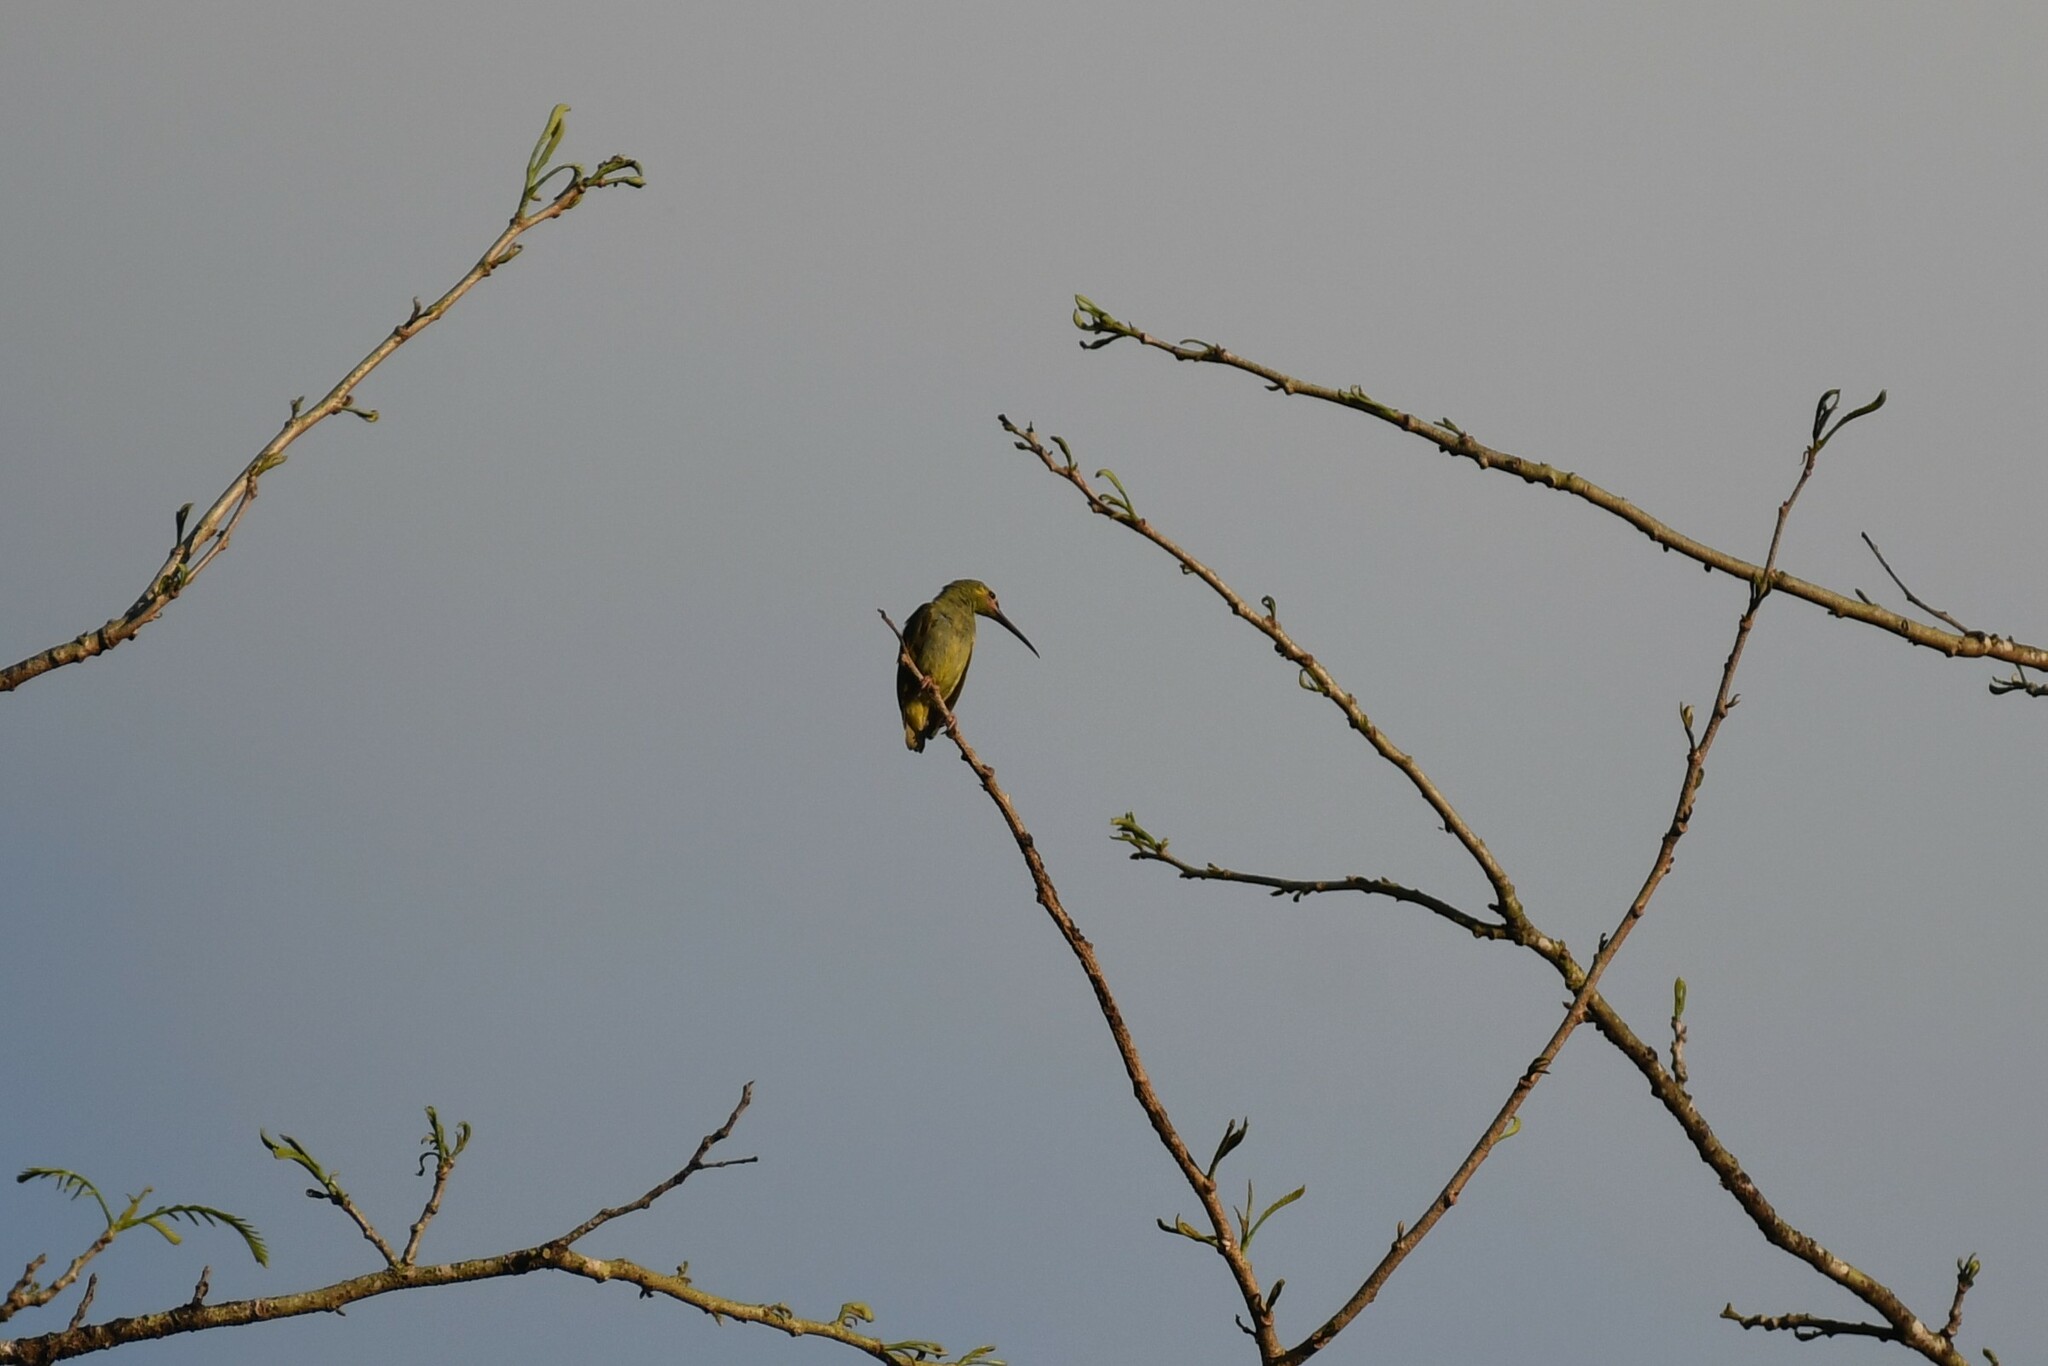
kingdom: Animalia
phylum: Chordata
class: Aves
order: Passeriformes
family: Nectariniidae
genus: Arachnothera
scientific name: Arachnothera chrysogenys
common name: Yellow-eared spiderhunter
